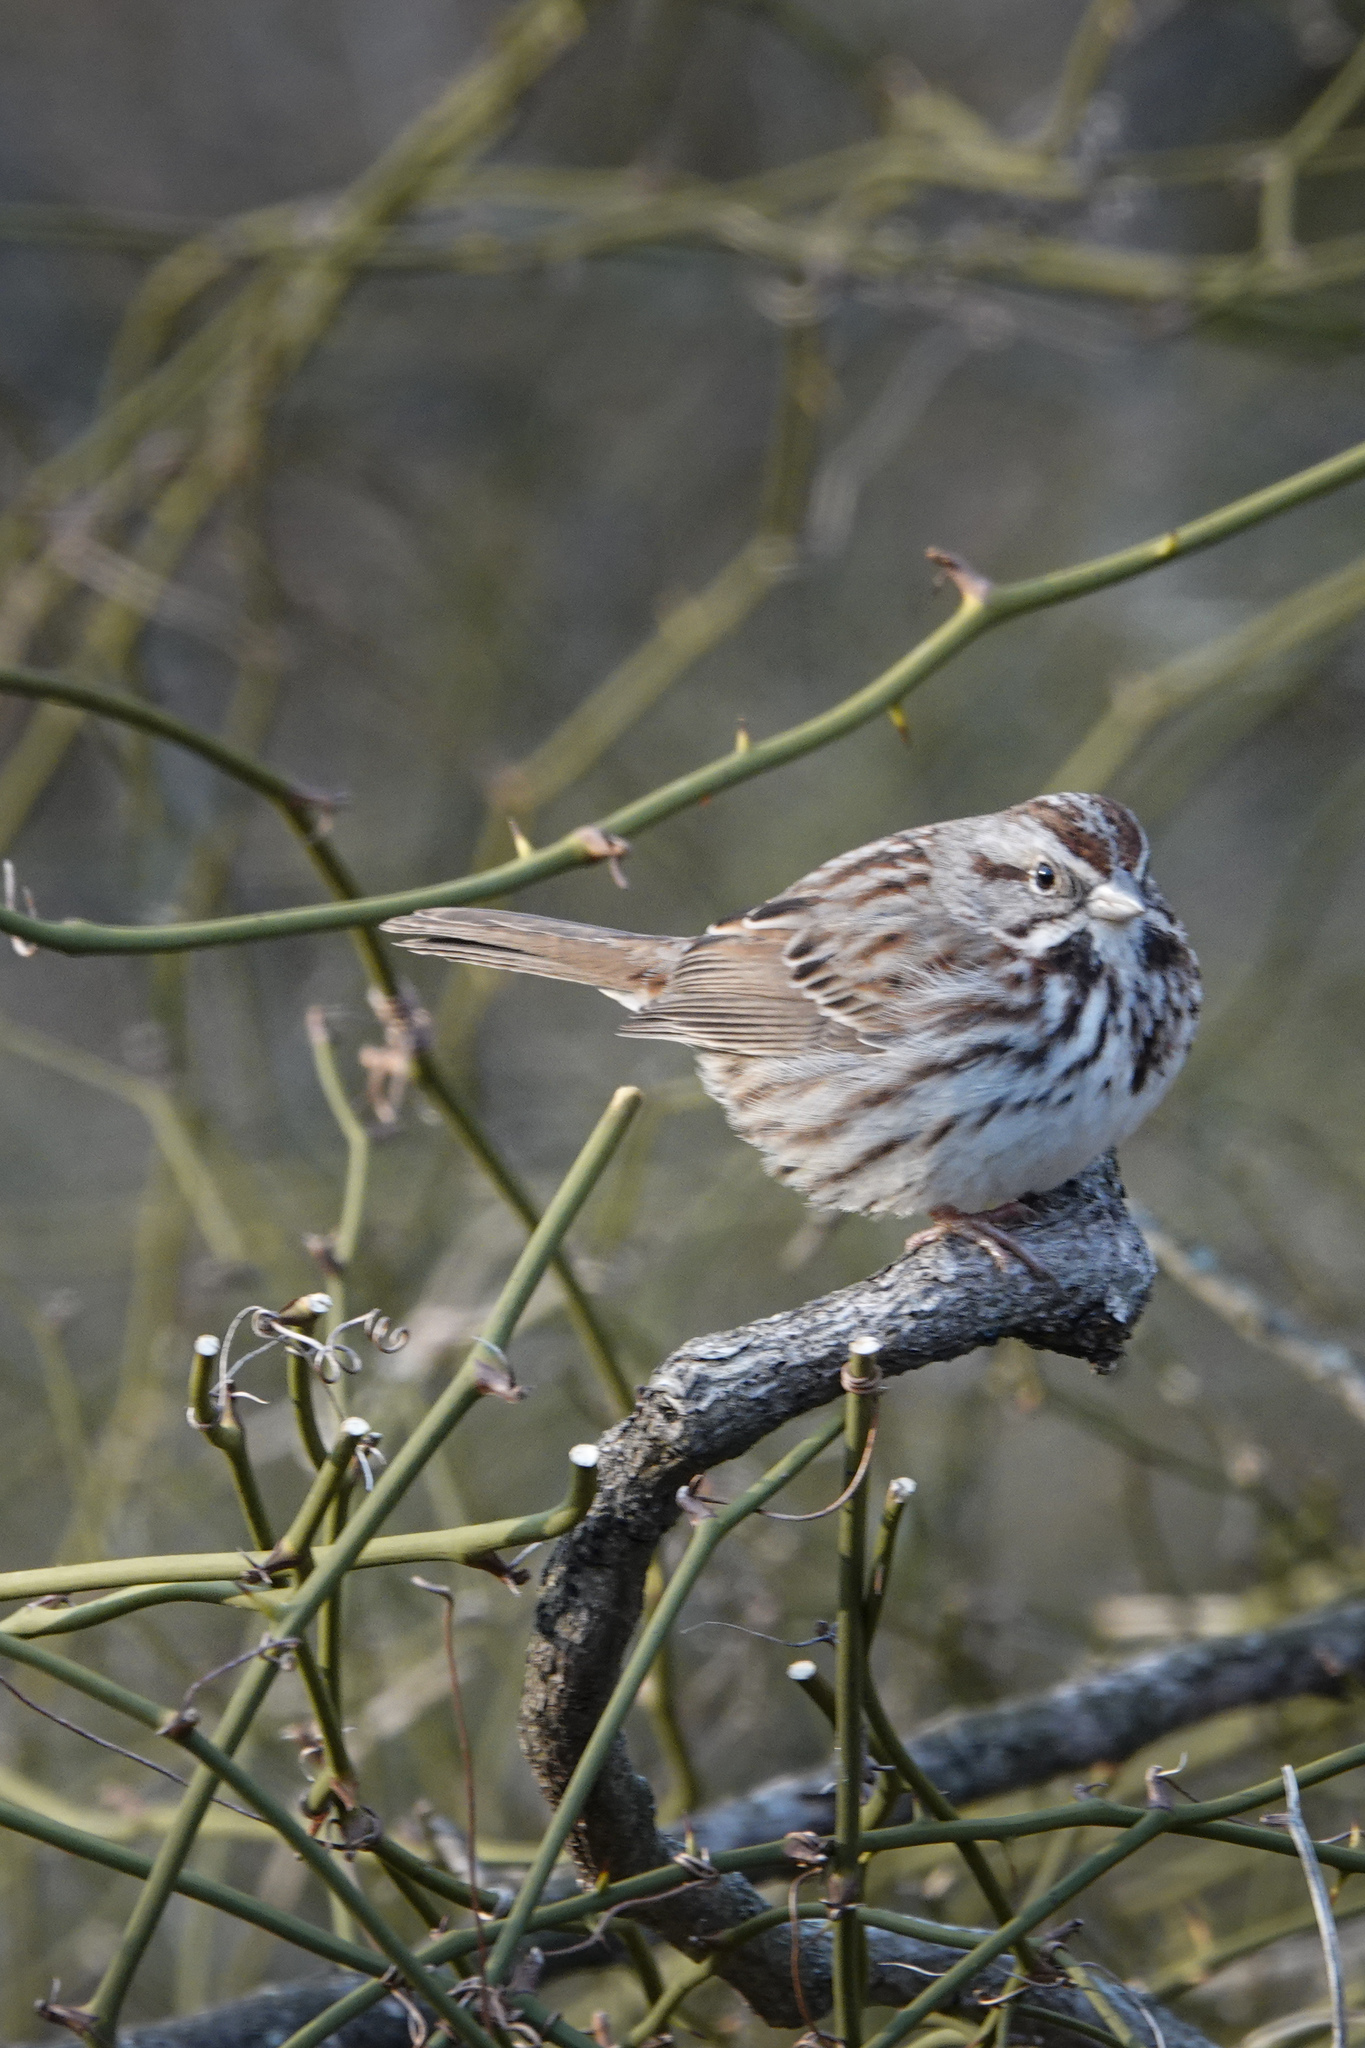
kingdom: Animalia
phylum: Chordata
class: Aves
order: Passeriformes
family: Passerellidae
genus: Melospiza
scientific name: Melospiza melodia
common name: Song sparrow
